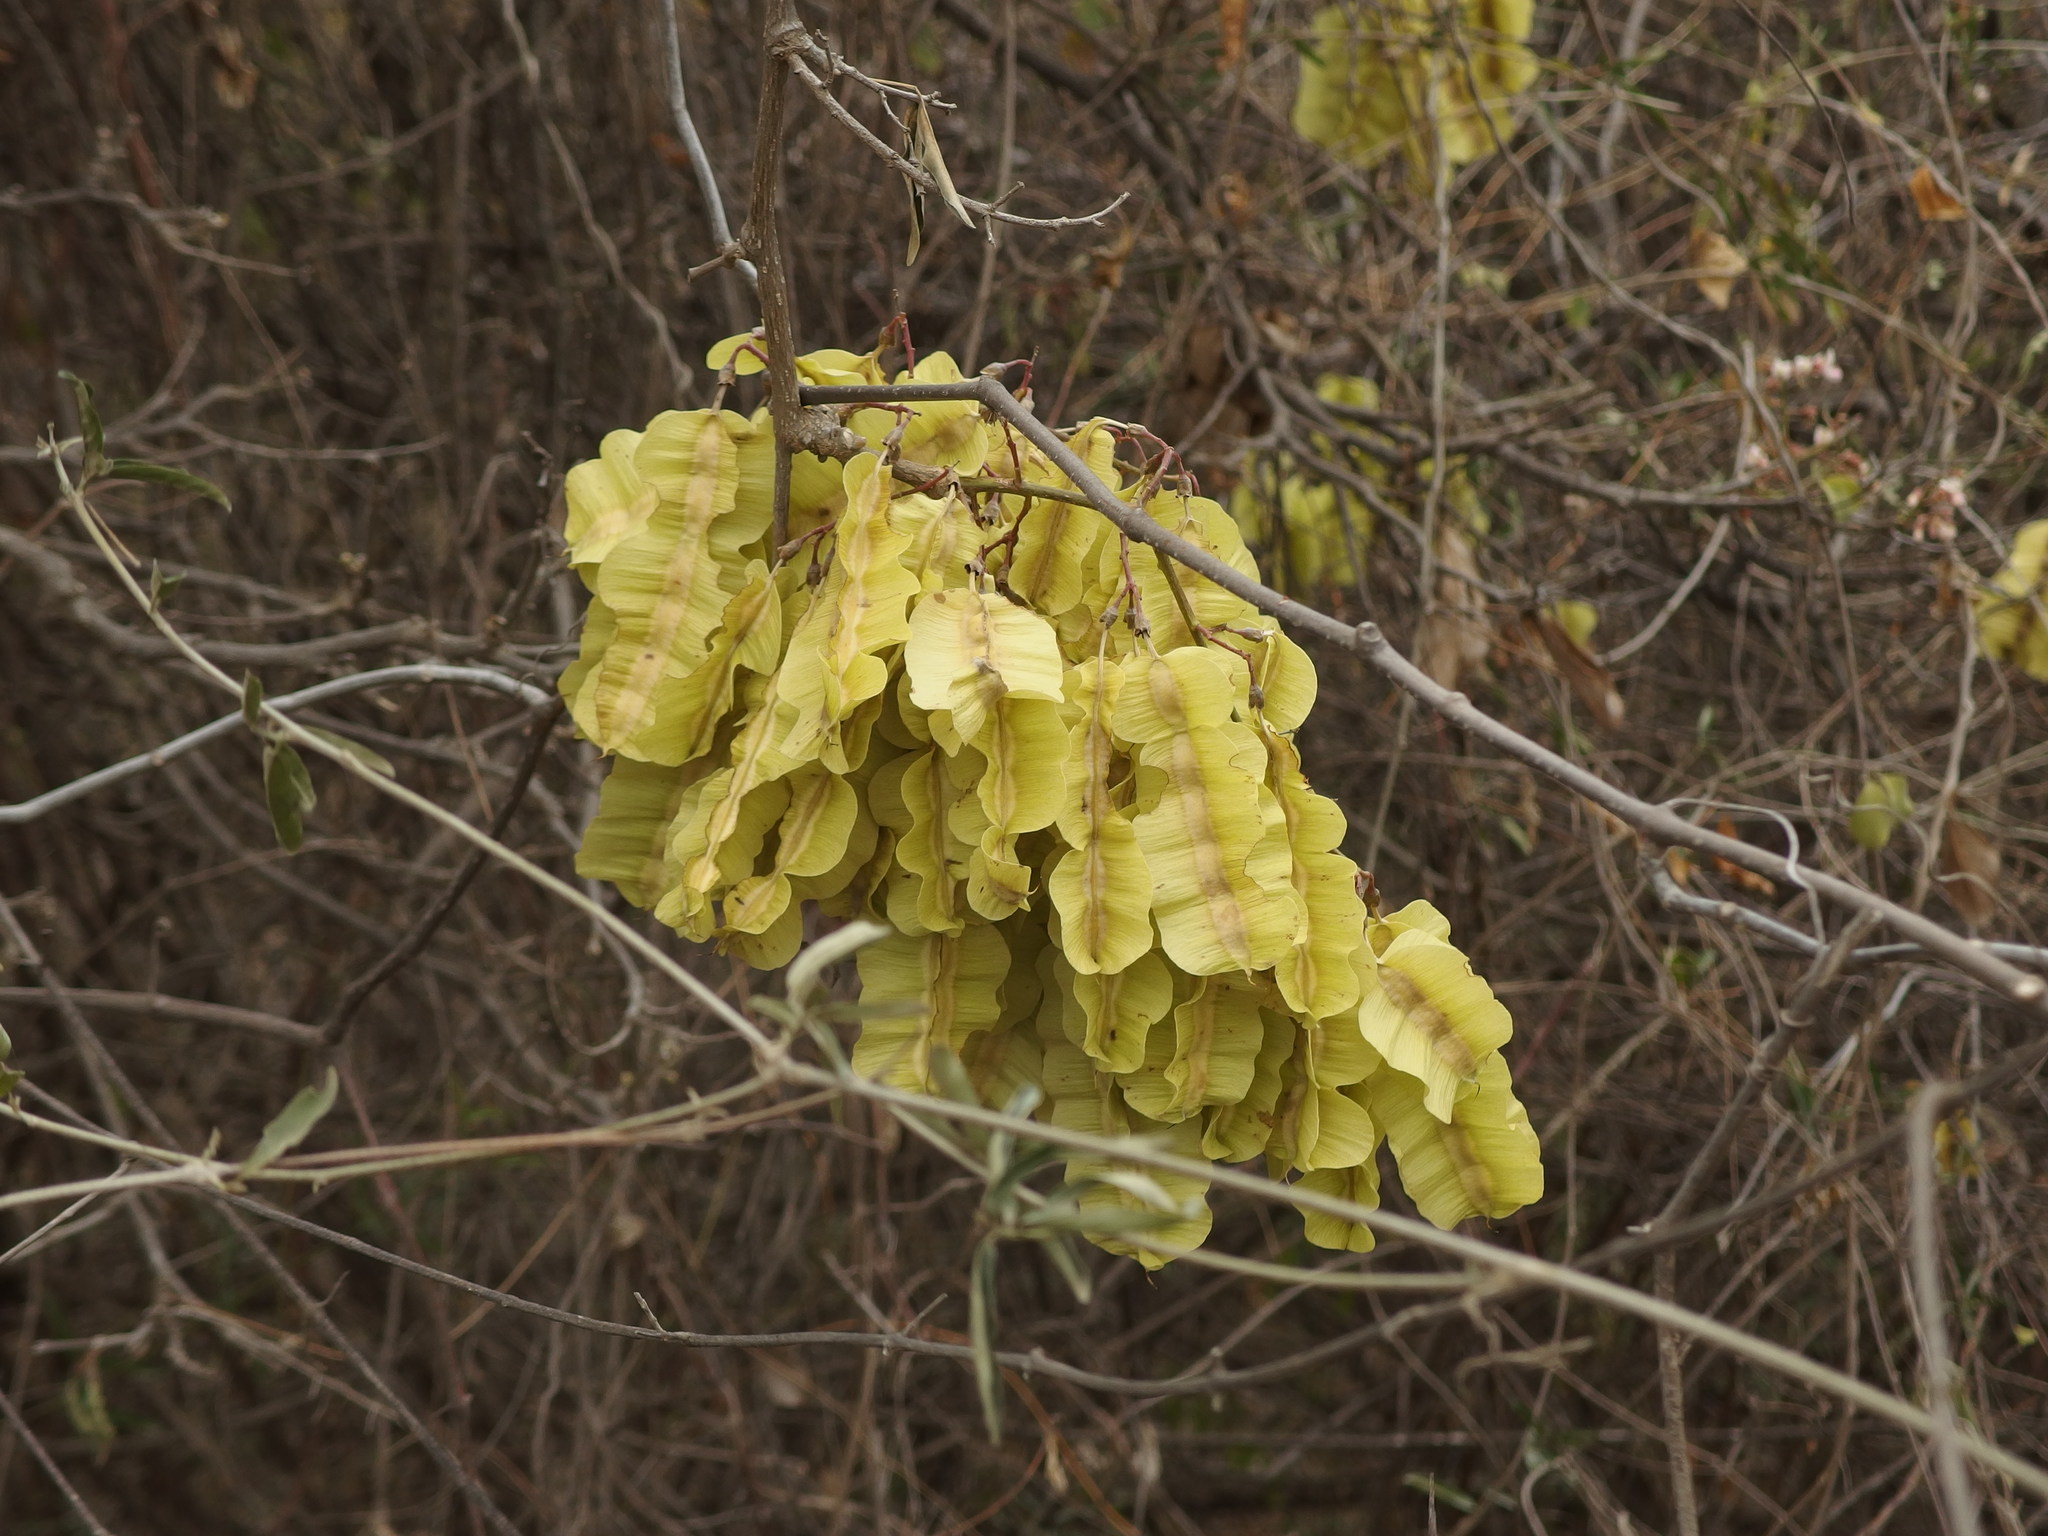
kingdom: Plantae
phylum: Tracheophyta
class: Magnoliopsida
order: Fabales
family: Fabaceae
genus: Piscidia
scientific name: Piscidia carthagenensis
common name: Stinkwood
